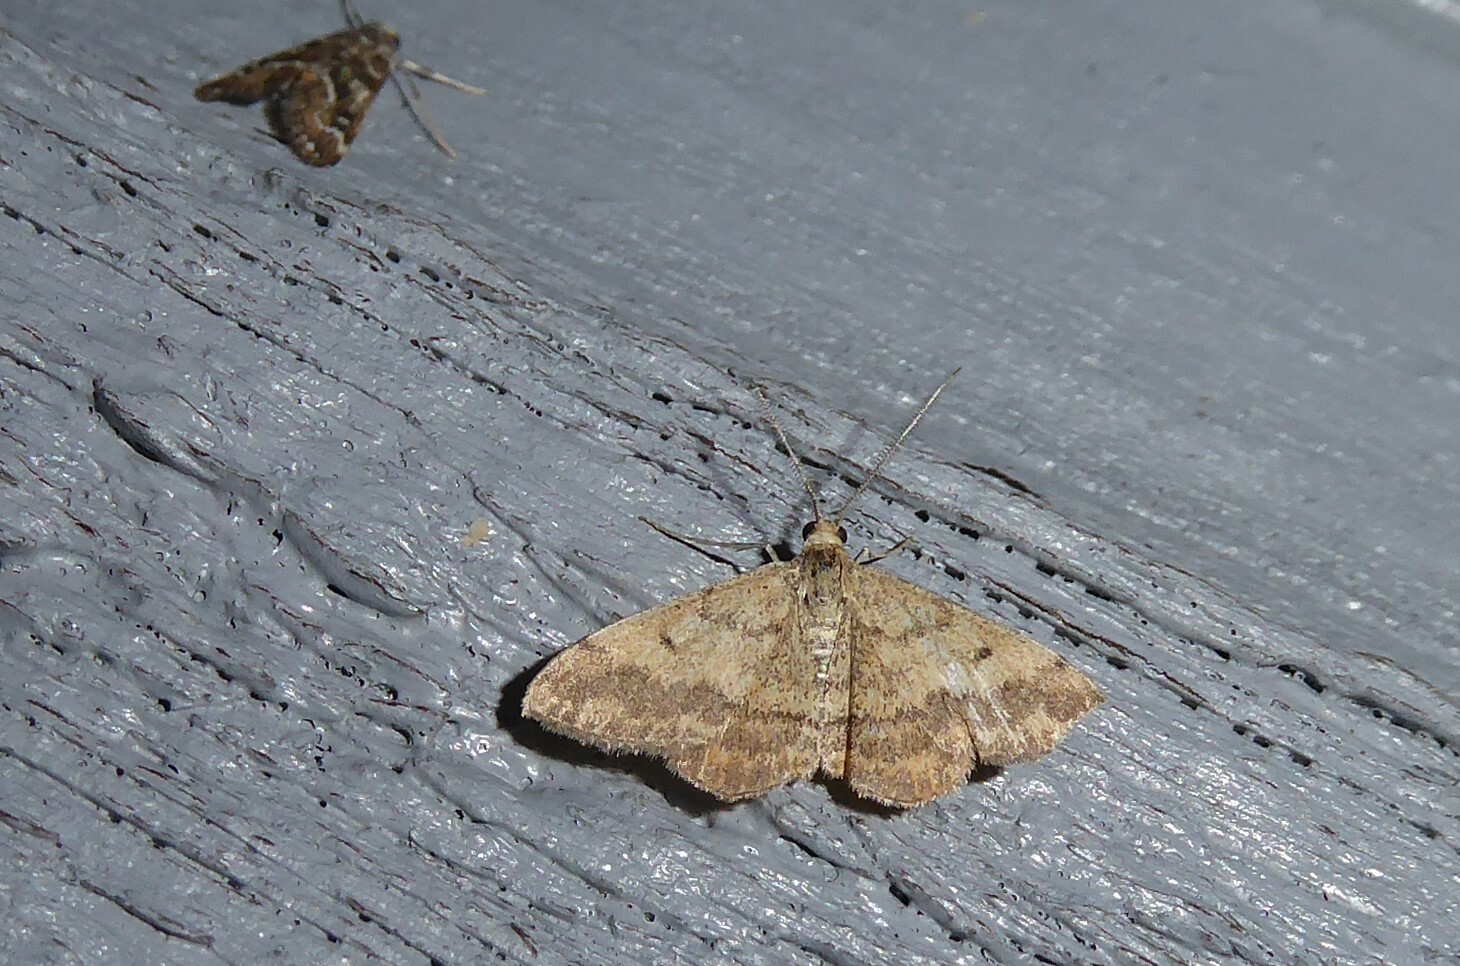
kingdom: Animalia
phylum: Arthropoda
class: Insecta
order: Lepidoptera
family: Geometridae
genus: Scopula
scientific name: Scopula rubraria
